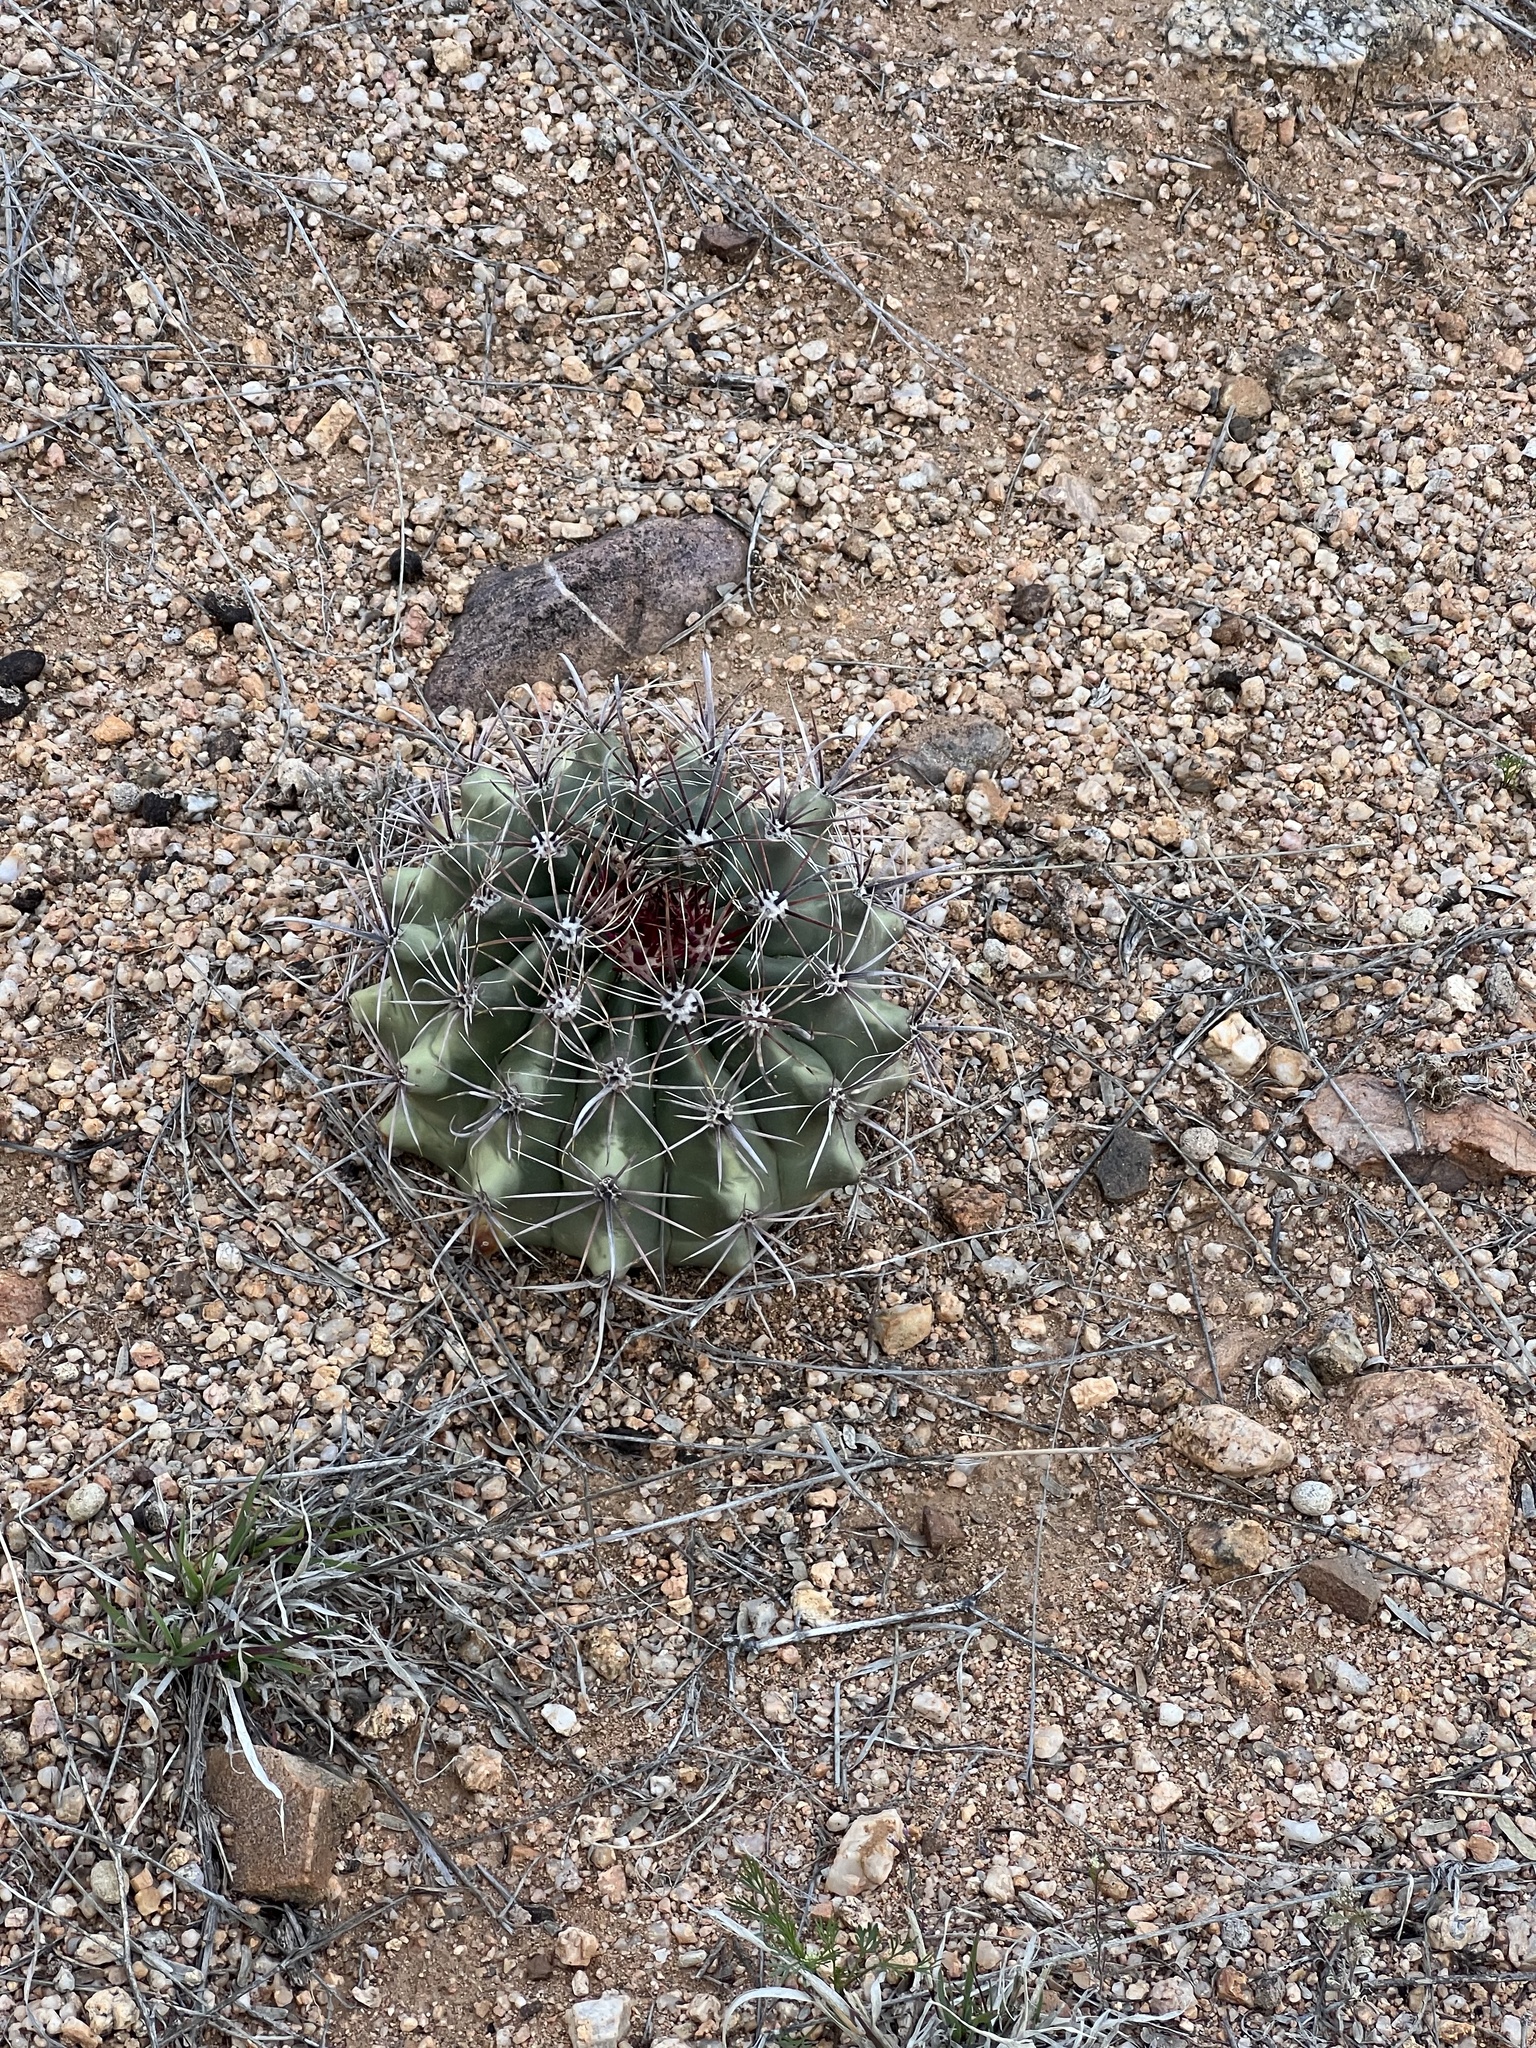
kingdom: Plantae
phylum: Tracheophyta
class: Magnoliopsida
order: Caryophyllales
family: Cactaceae
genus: Ferocactus
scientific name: Ferocactus wislizeni
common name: Candy barrel cactus
